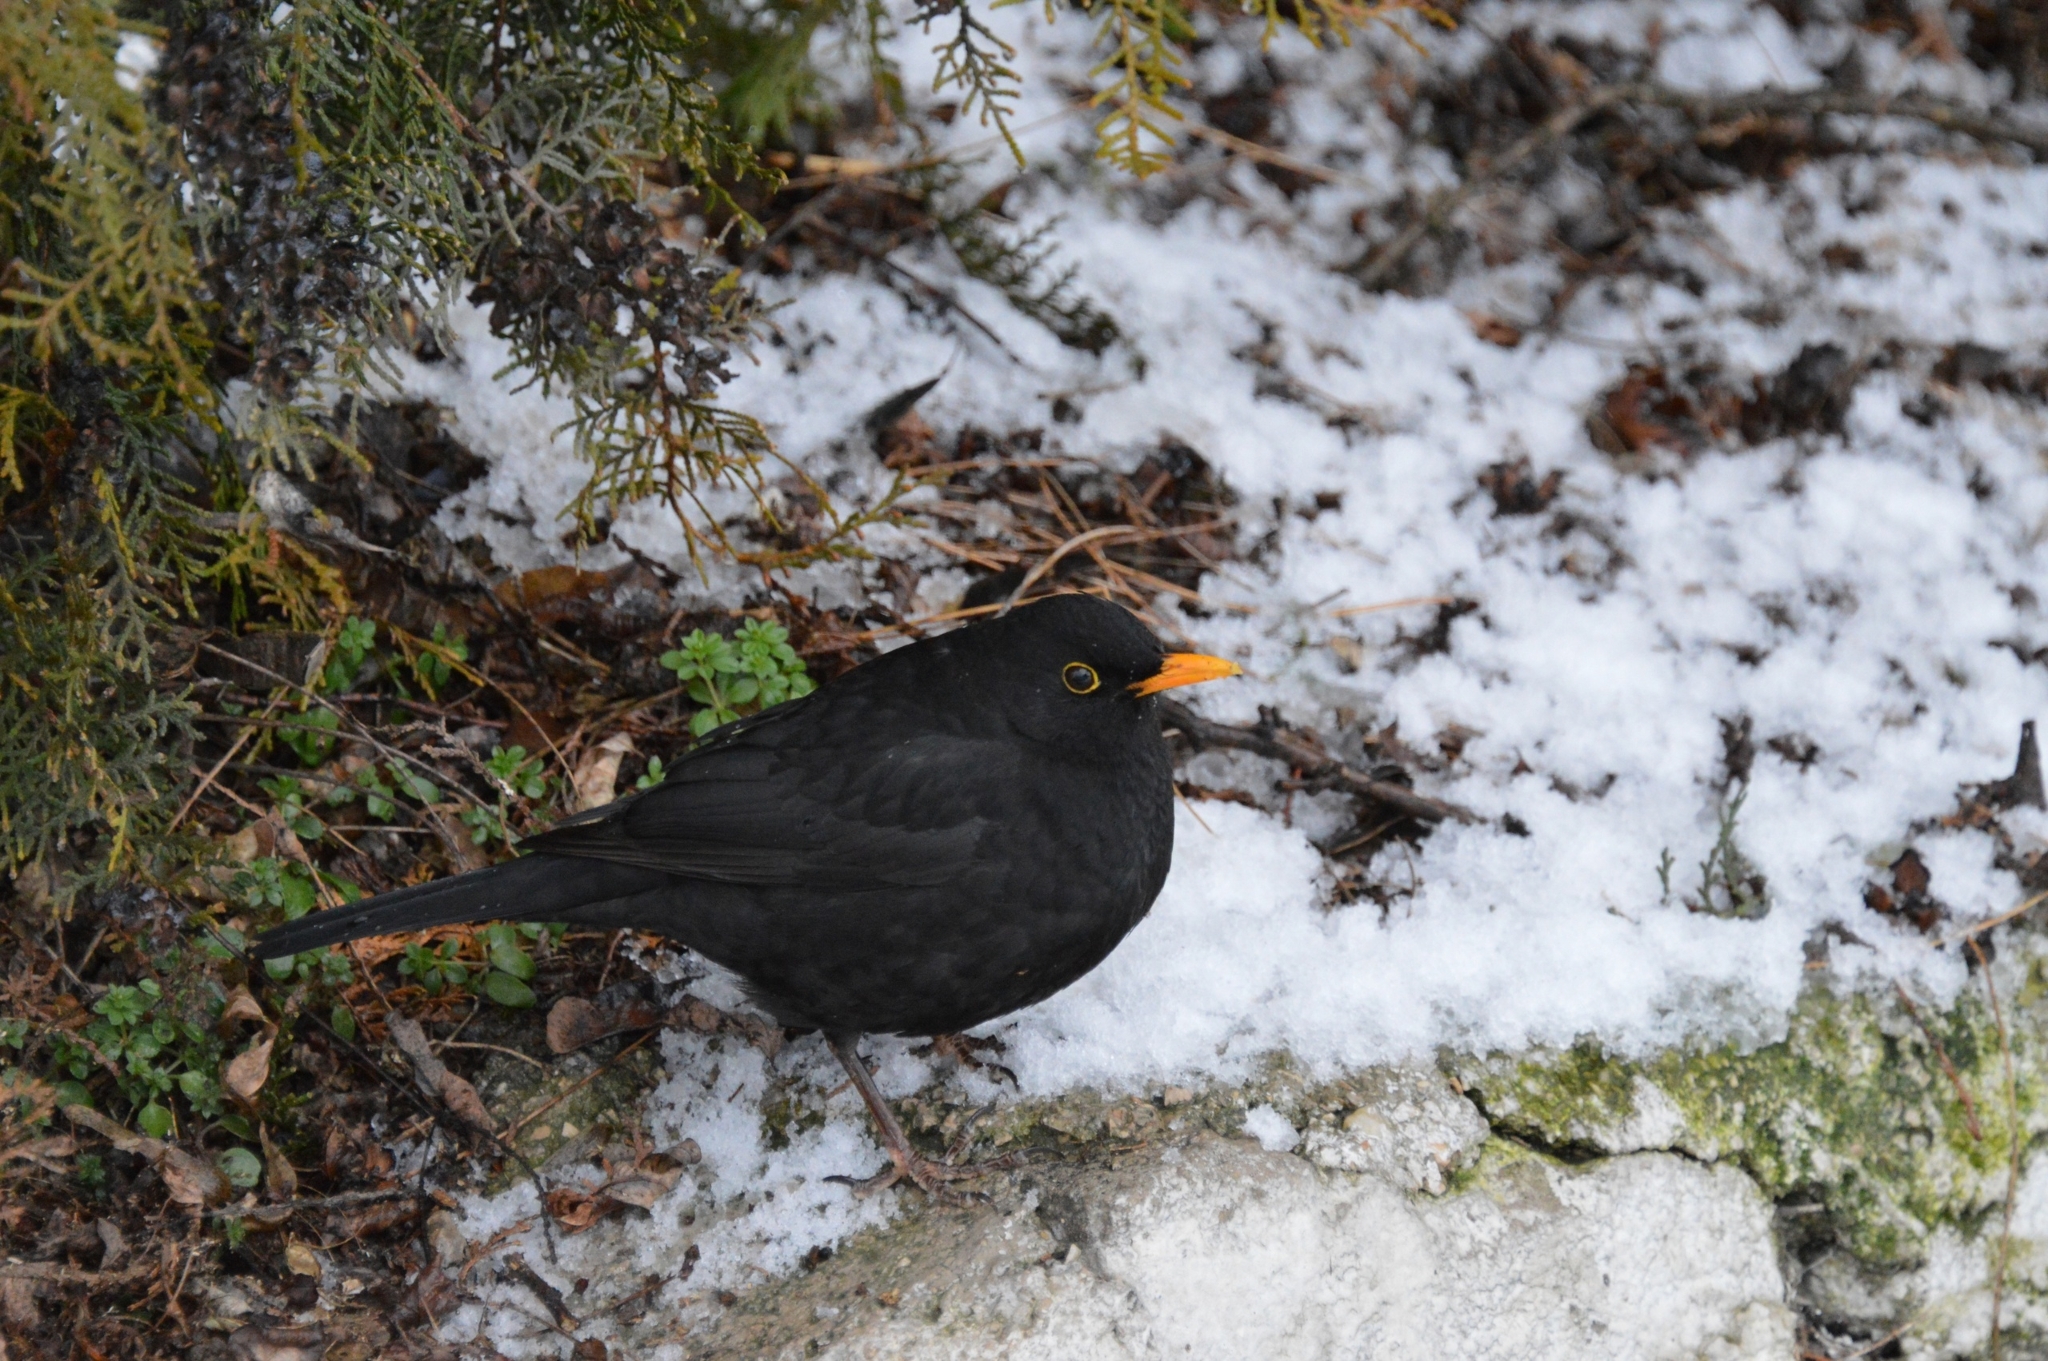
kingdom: Animalia
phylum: Chordata
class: Aves
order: Passeriformes
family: Turdidae
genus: Turdus
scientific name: Turdus merula
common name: Common blackbird
